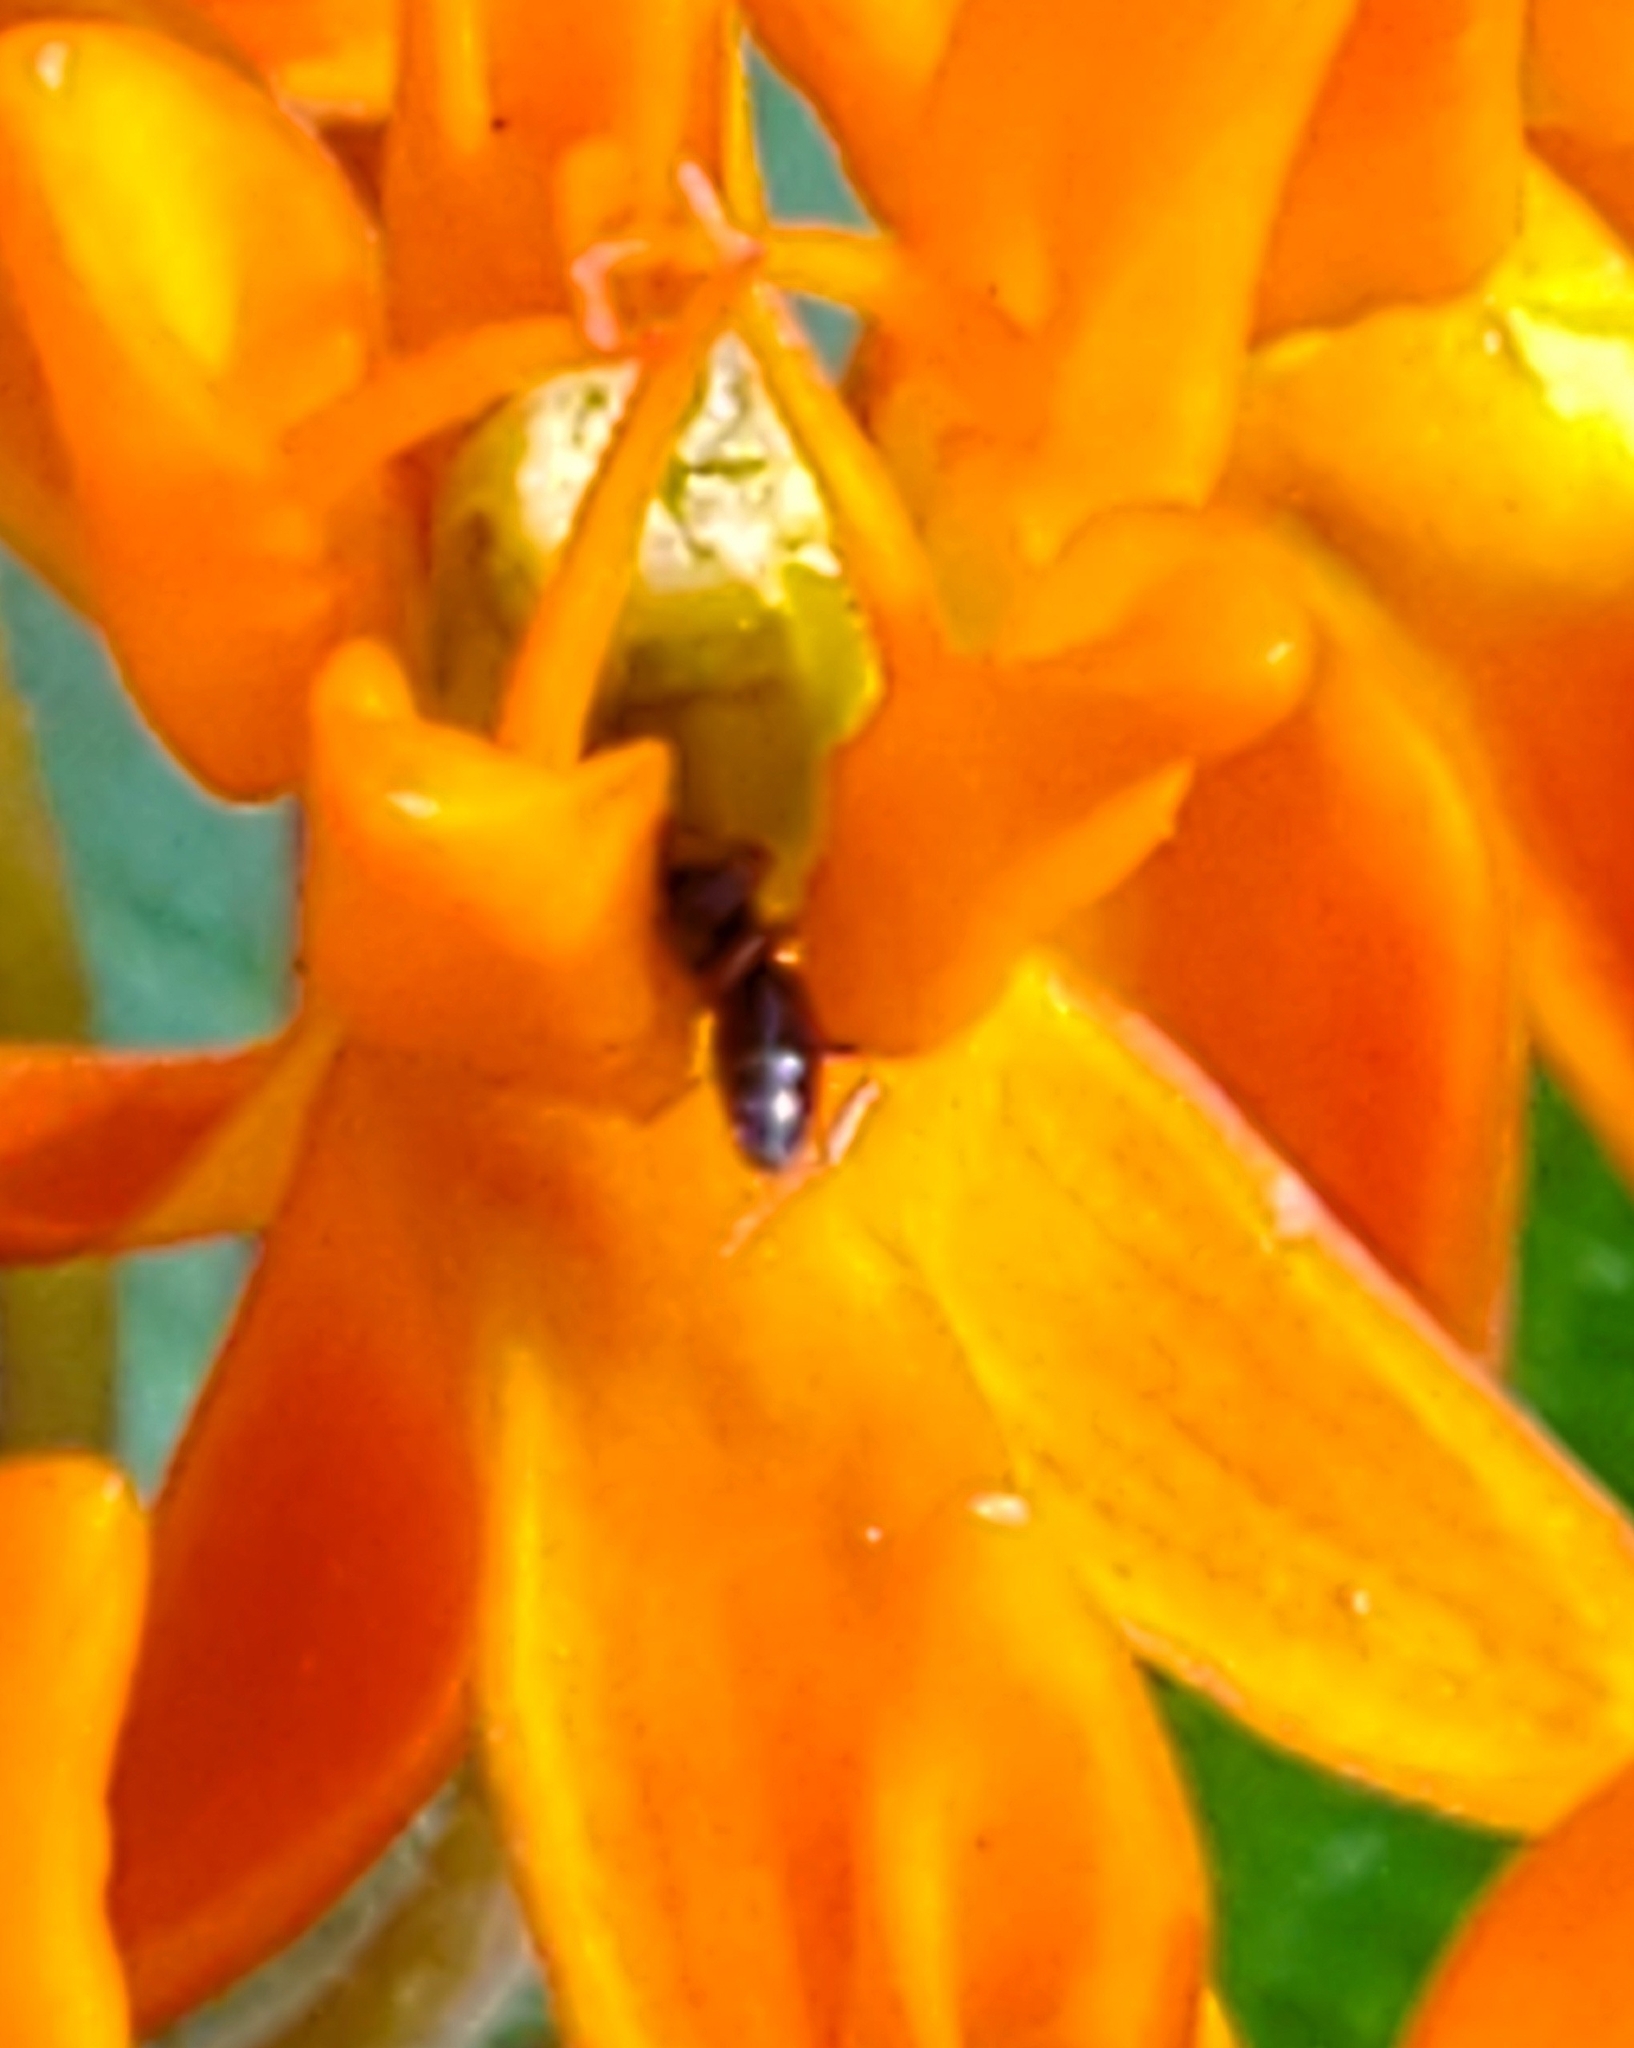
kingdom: Animalia
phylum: Arthropoda
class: Insecta
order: Hymenoptera
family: Formicidae
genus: Tapinoma
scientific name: Tapinoma sessile
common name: Odorous house ant
